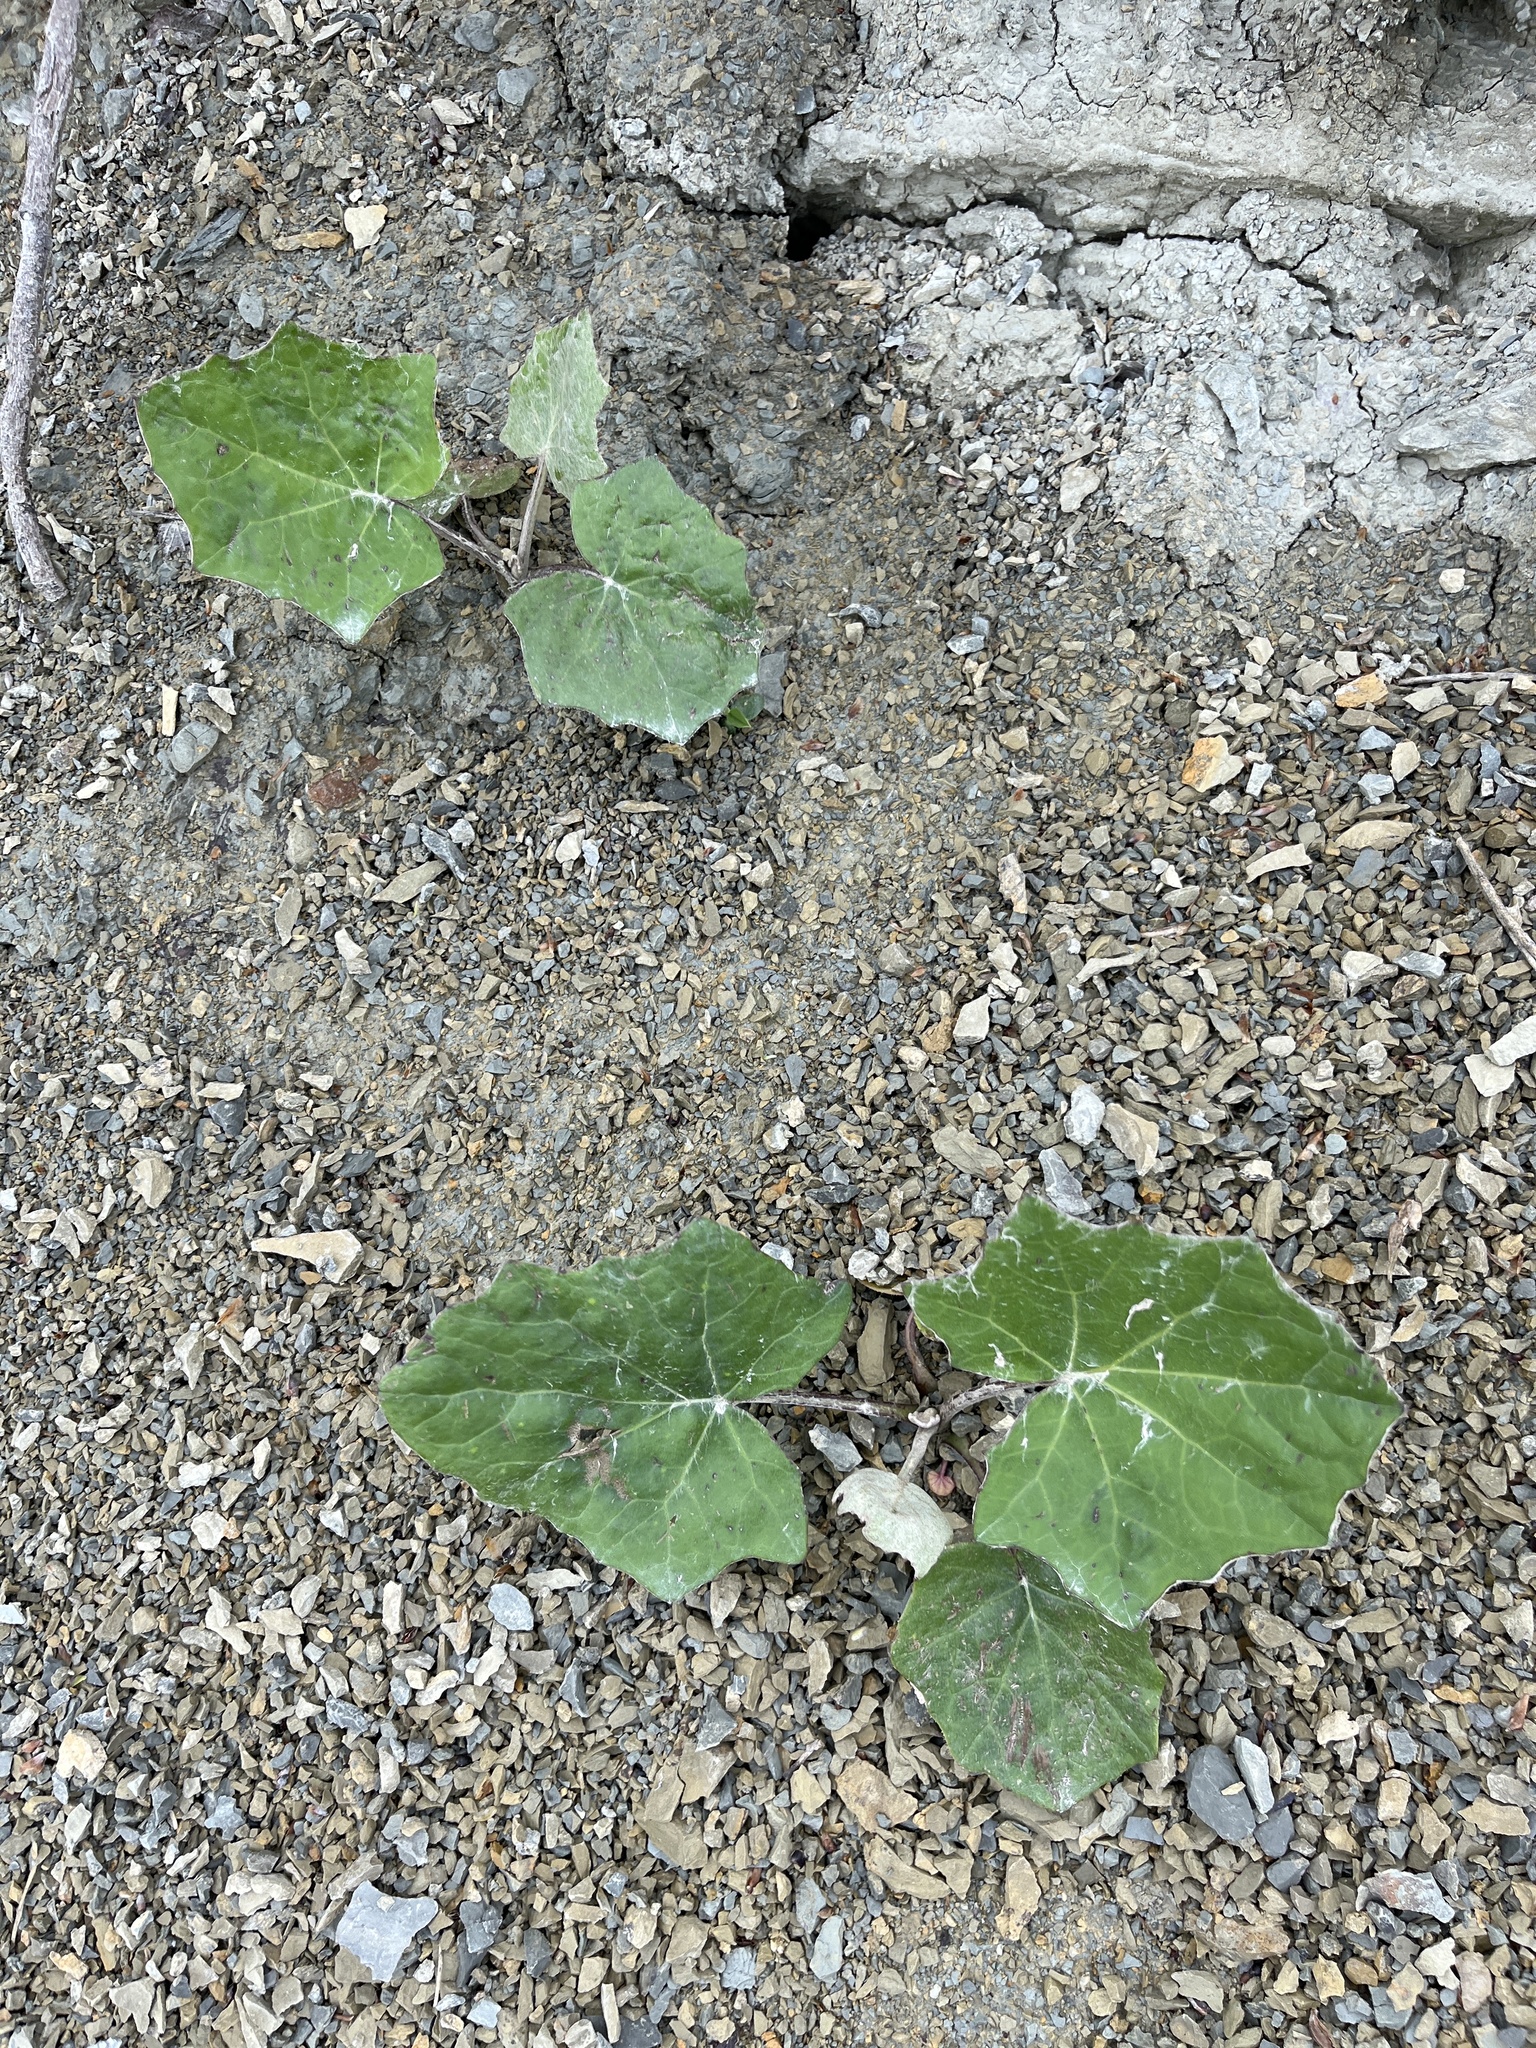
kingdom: Plantae
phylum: Tracheophyta
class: Magnoliopsida
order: Asterales
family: Asteraceae
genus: Tussilago
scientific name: Tussilago farfara
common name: Coltsfoot
